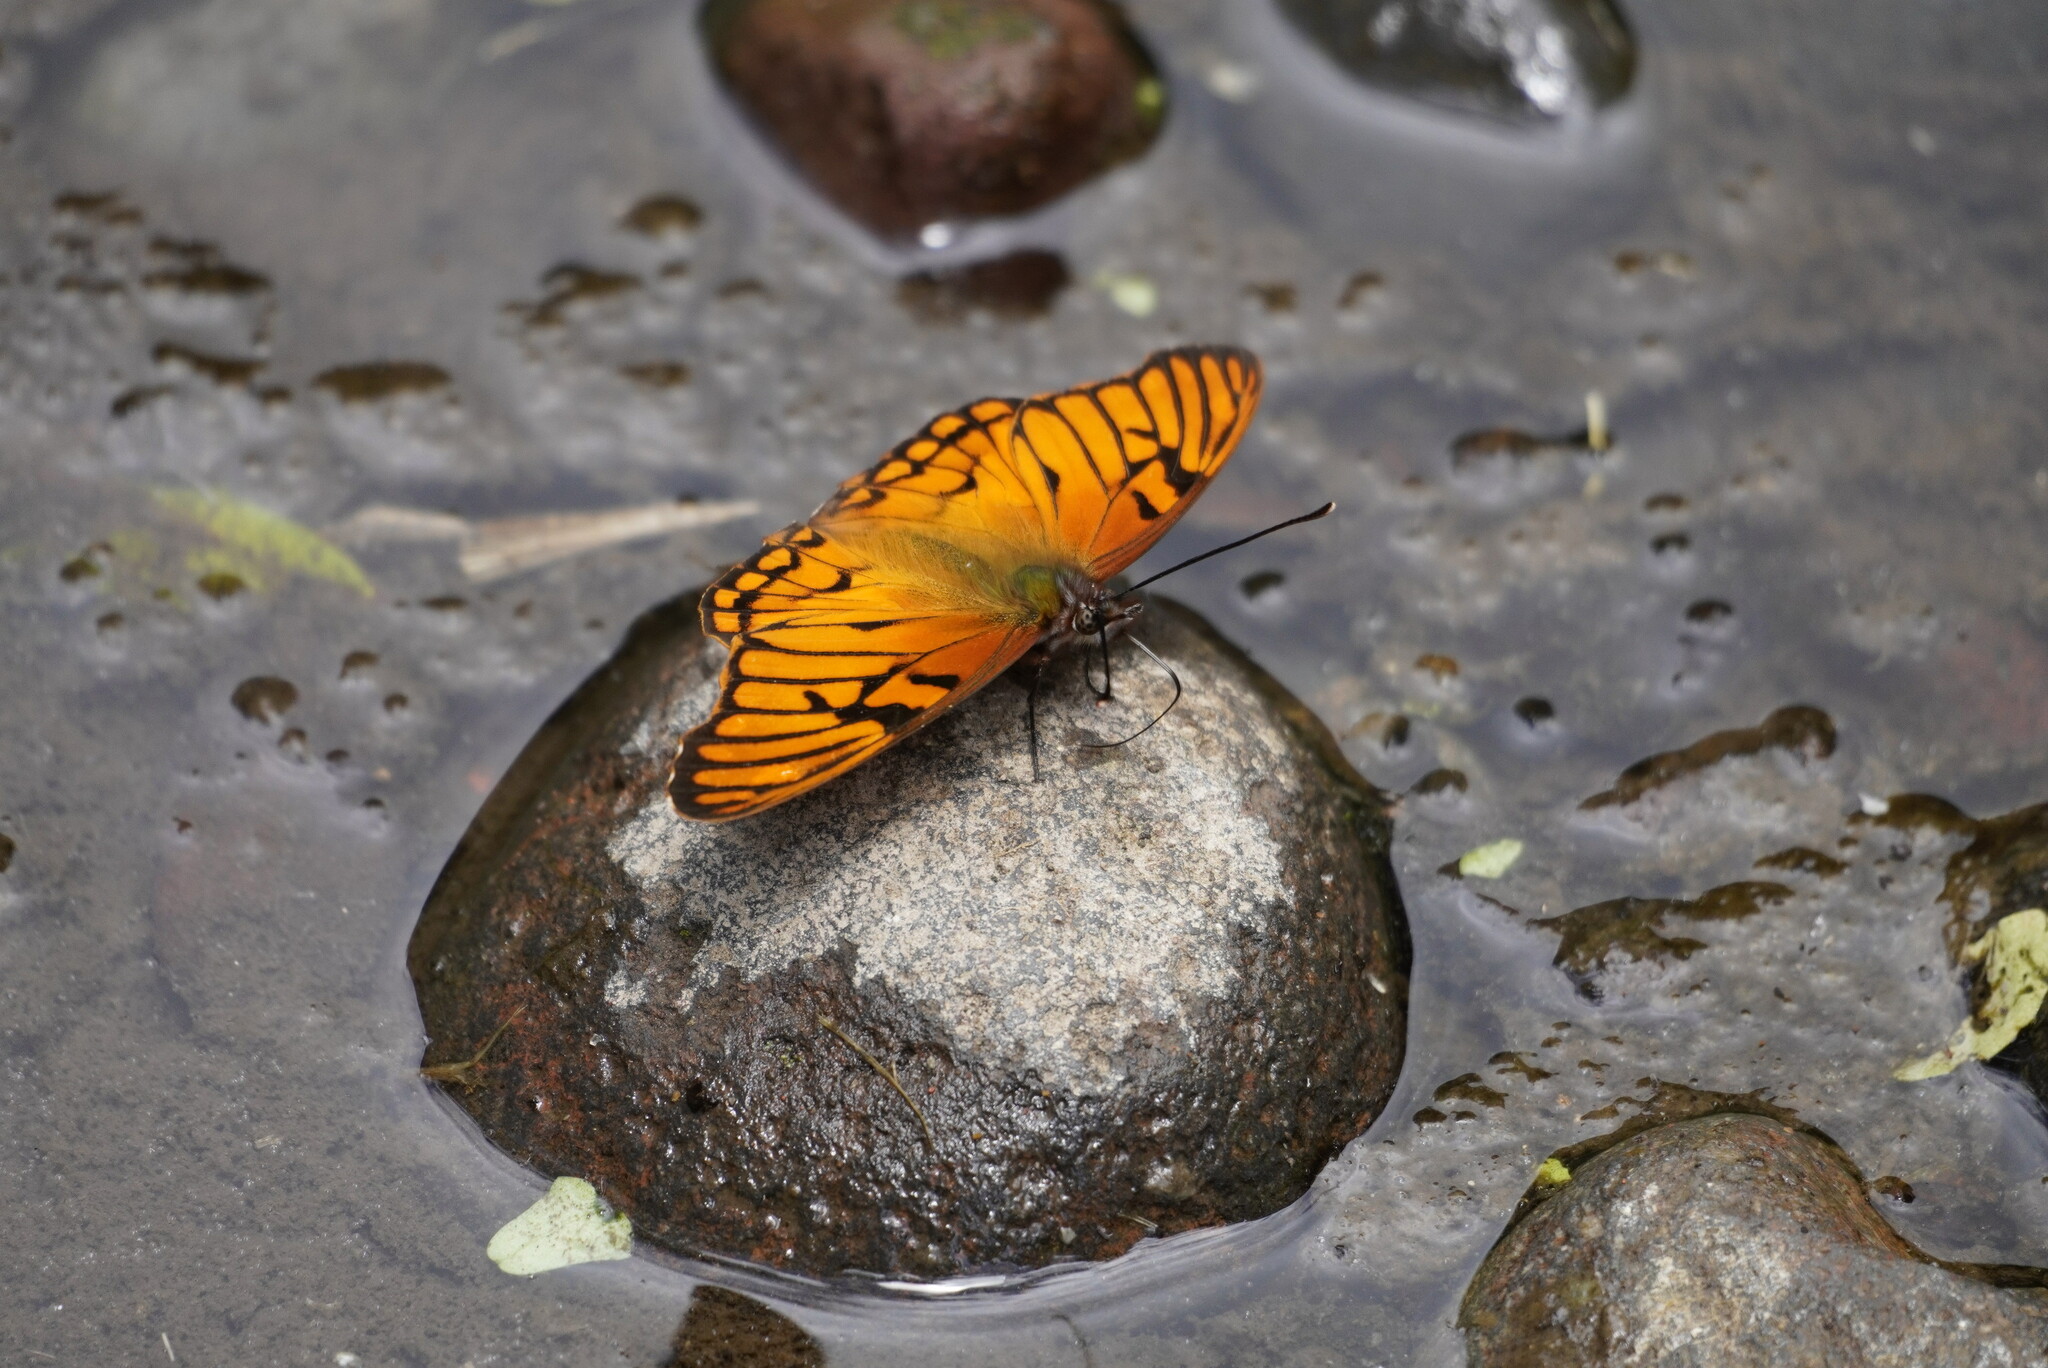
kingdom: Animalia
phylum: Arthropoda
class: Insecta
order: Lepidoptera
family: Nymphalidae
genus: Dione
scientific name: Dione glycera
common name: Andean silverspot
